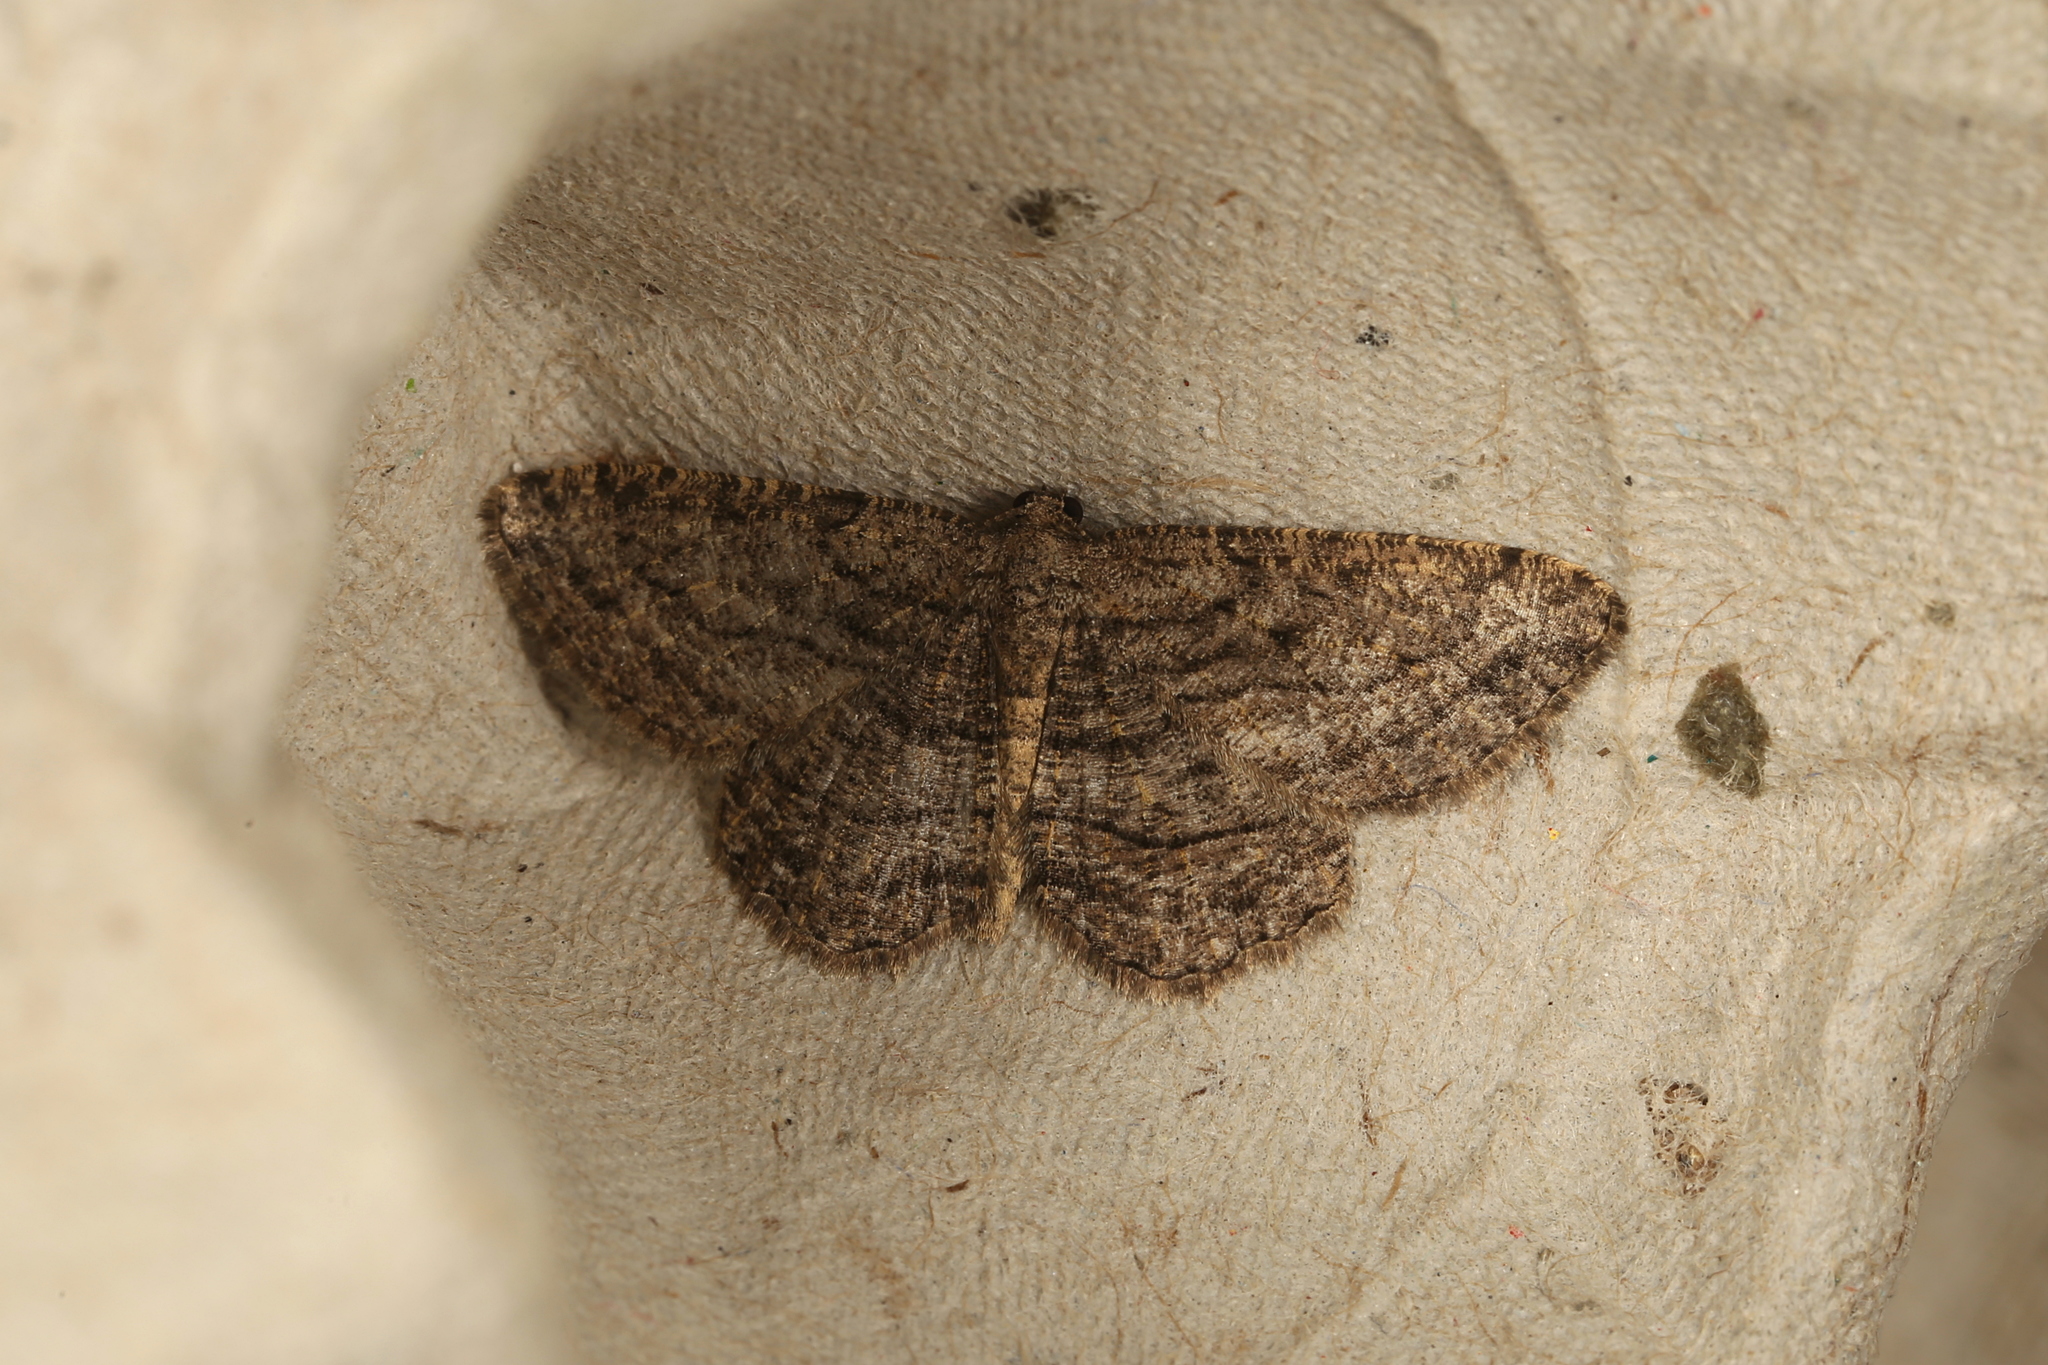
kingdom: Animalia
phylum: Arthropoda
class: Insecta
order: Lepidoptera
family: Geometridae
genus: Zermizinga
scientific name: Zermizinga sinuata
